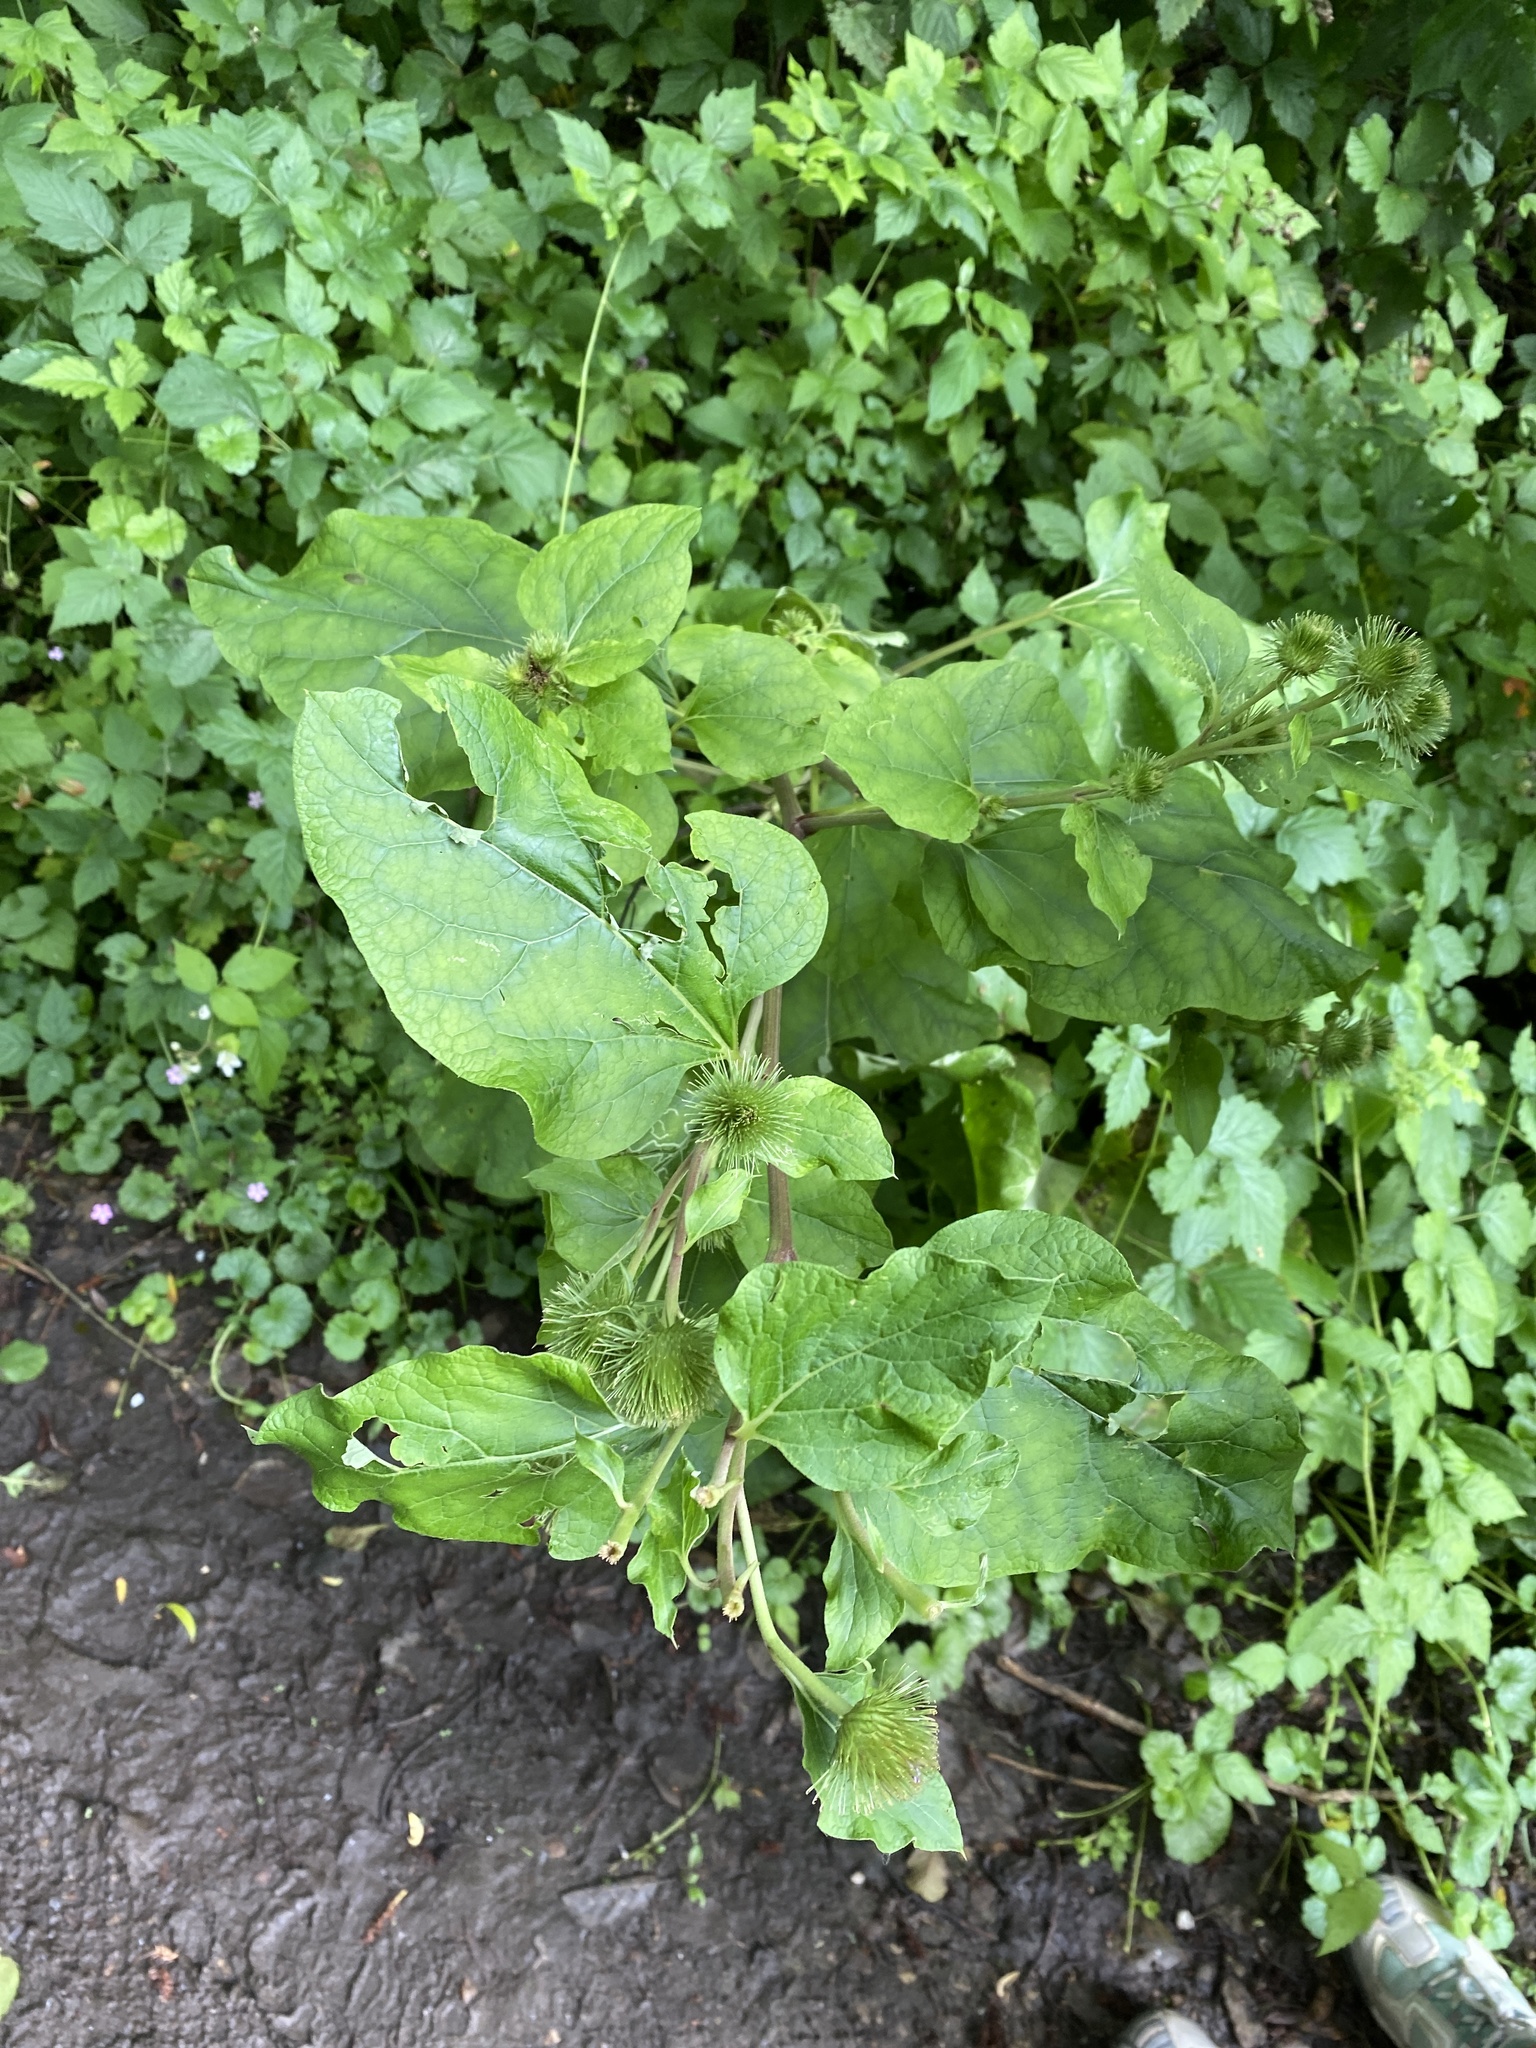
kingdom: Plantae
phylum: Tracheophyta
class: Magnoliopsida
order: Asterales
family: Asteraceae
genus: Arctium
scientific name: Arctium lappa
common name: Greater burdock
